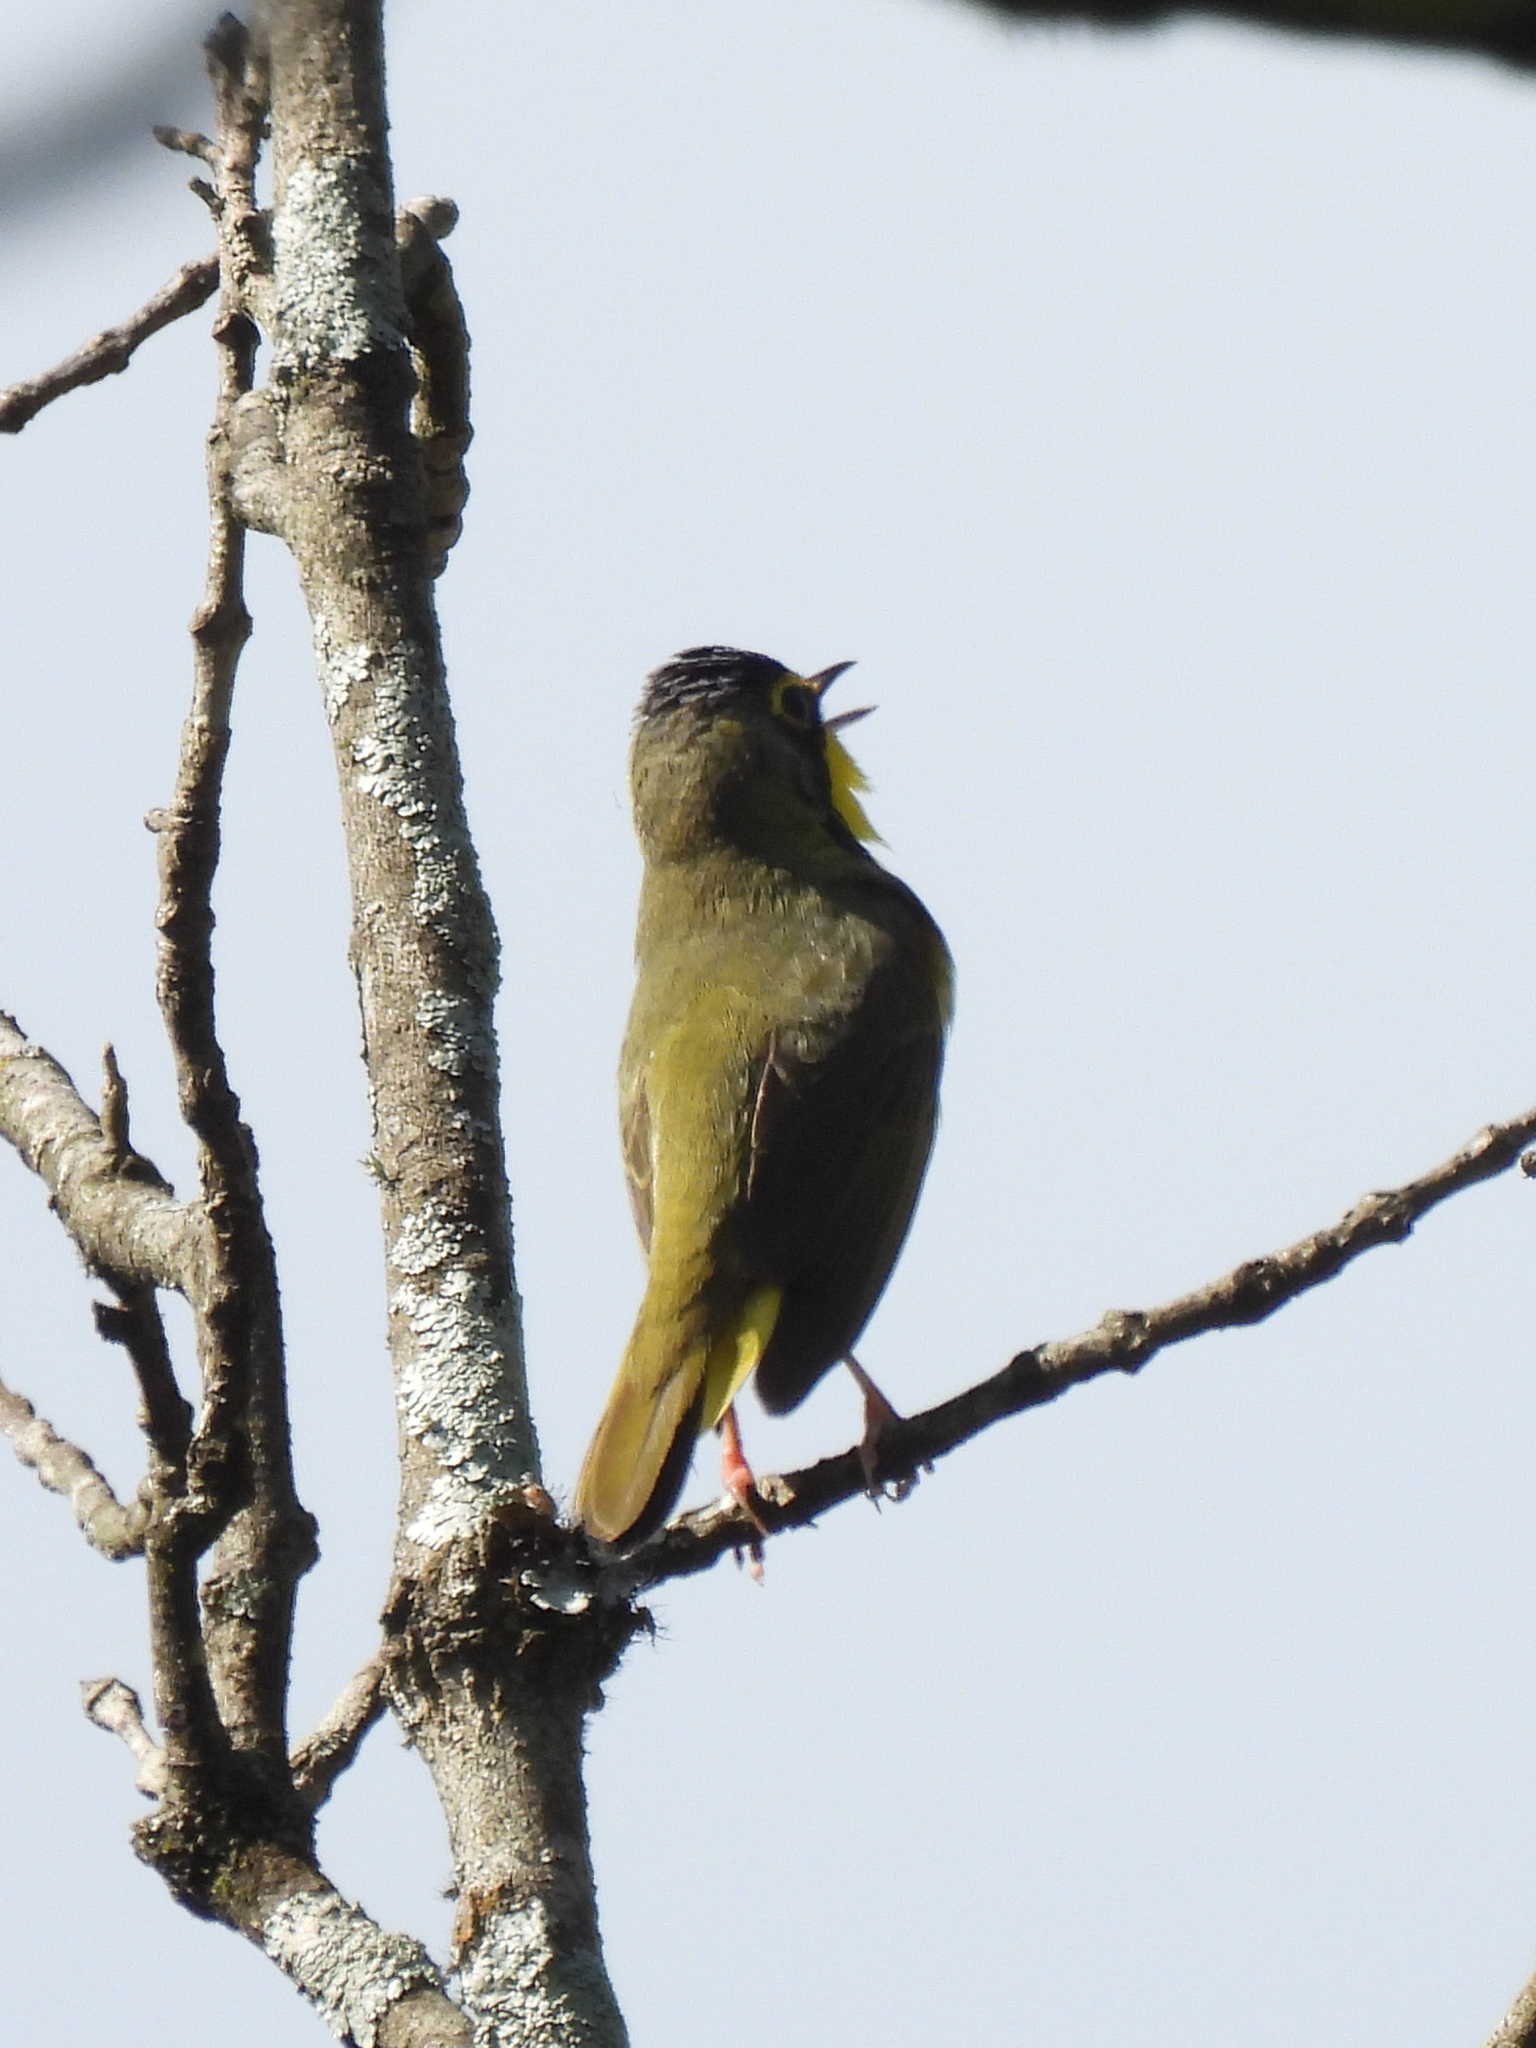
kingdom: Animalia
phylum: Chordata
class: Aves
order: Passeriformes
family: Parulidae
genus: Geothlypis
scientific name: Geothlypis formosa
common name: Kentucky warbler
